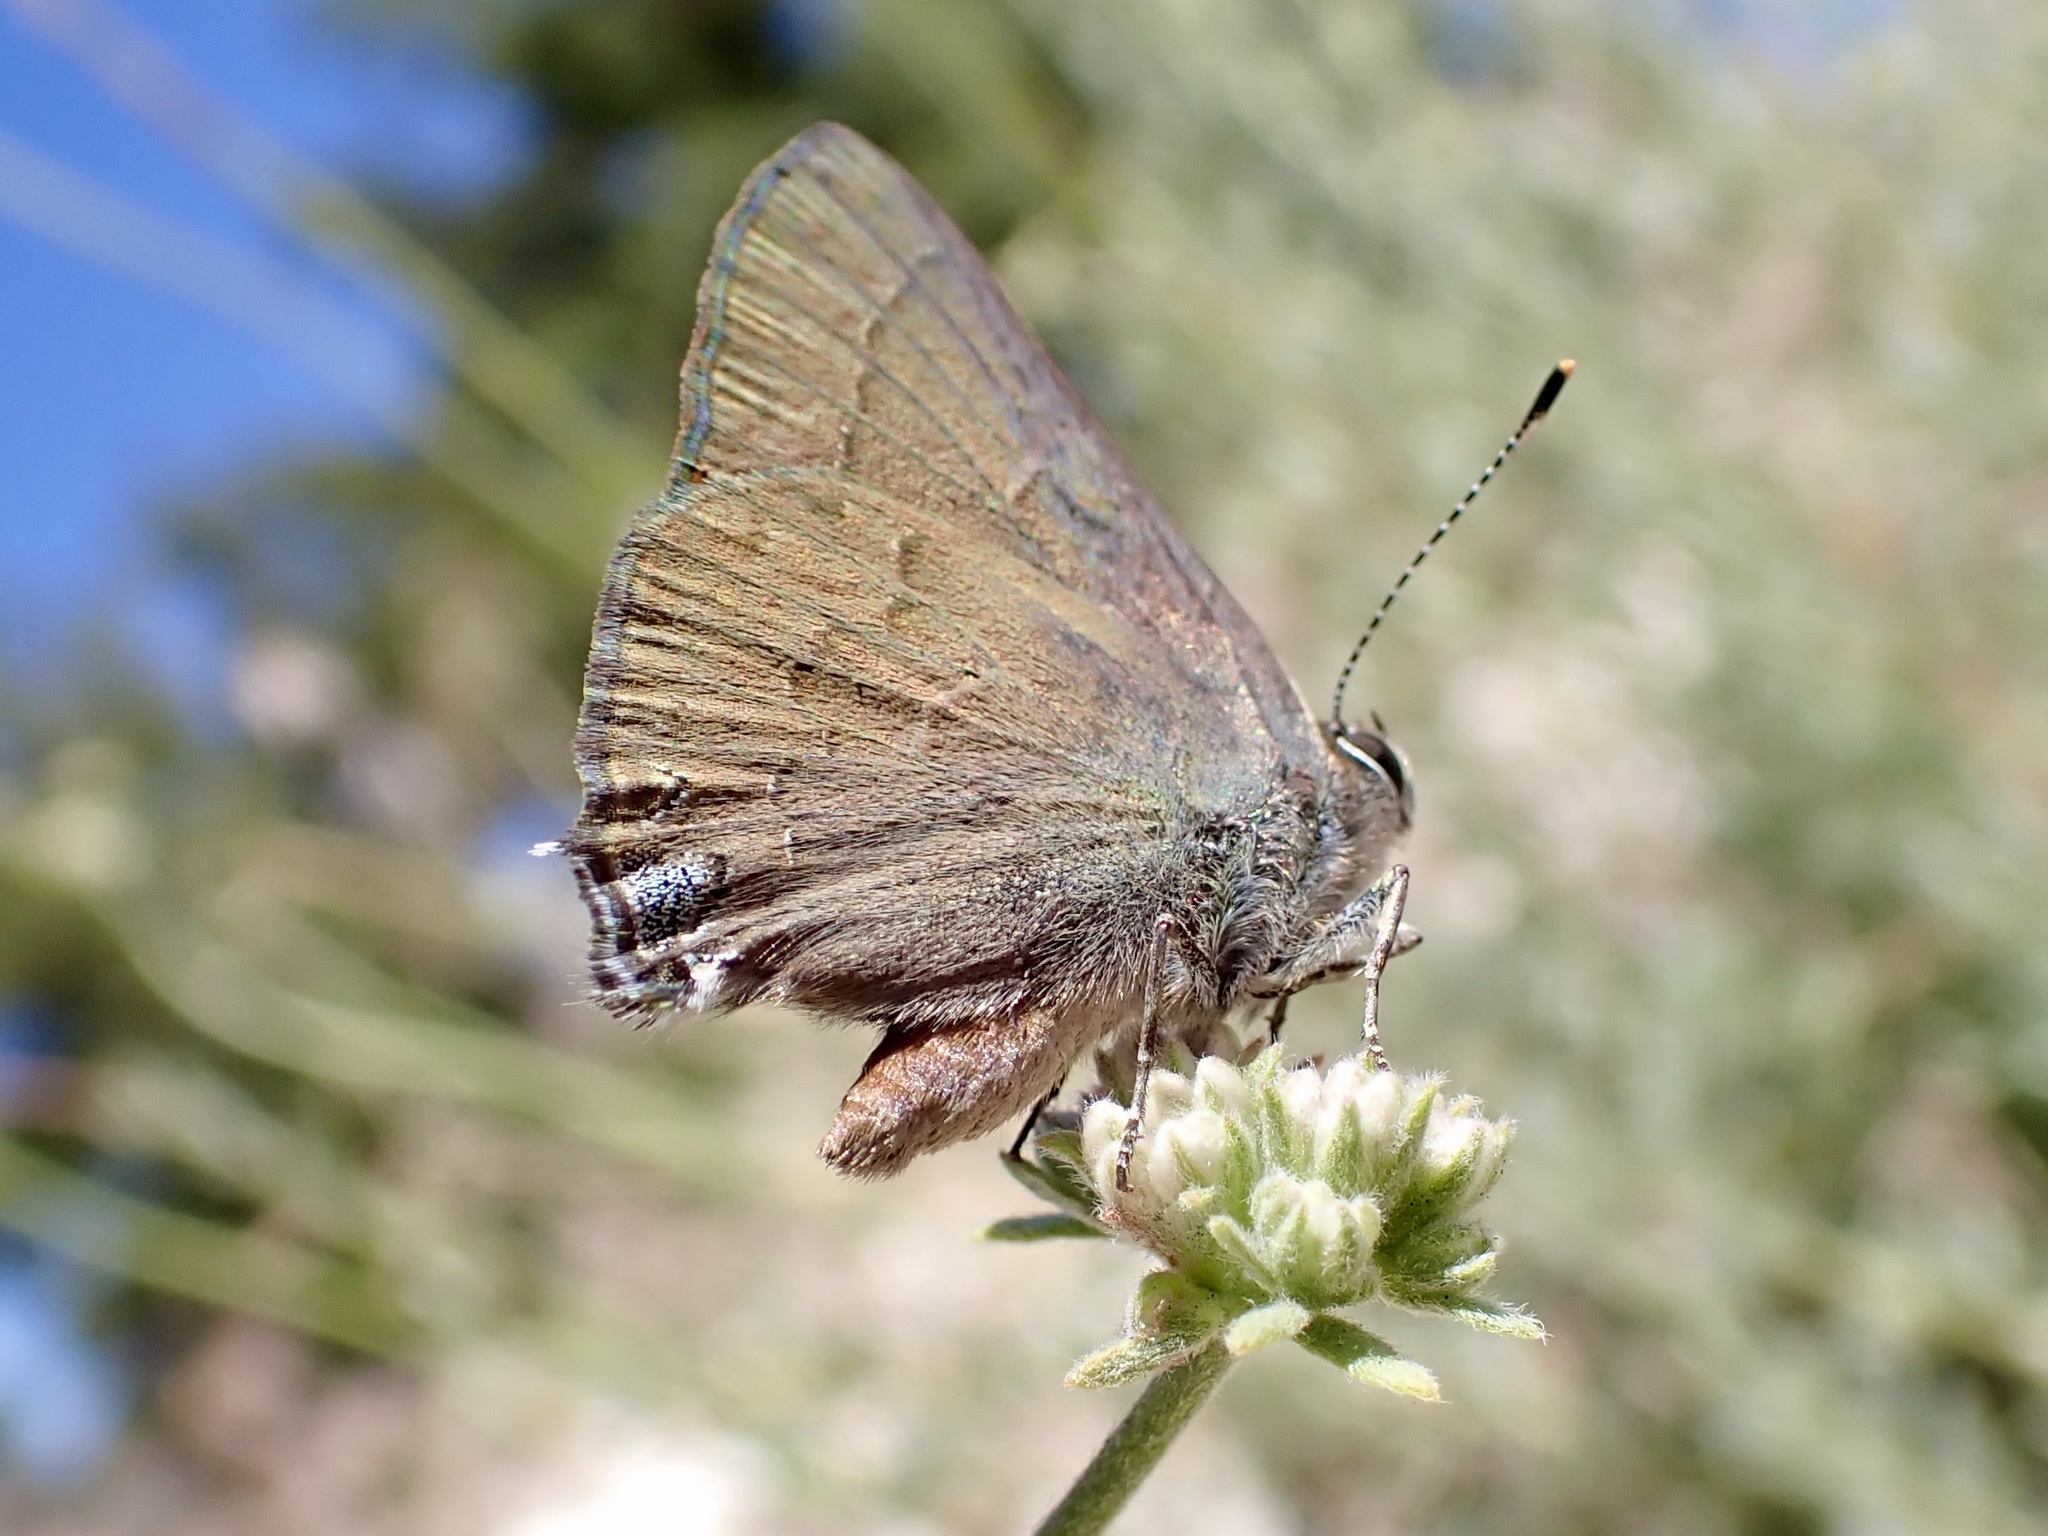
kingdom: Animalia
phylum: Arthropoda
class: Insecta
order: Lepidoptera
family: Lycaenidae
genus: Strymon
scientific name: Strymon saepium
